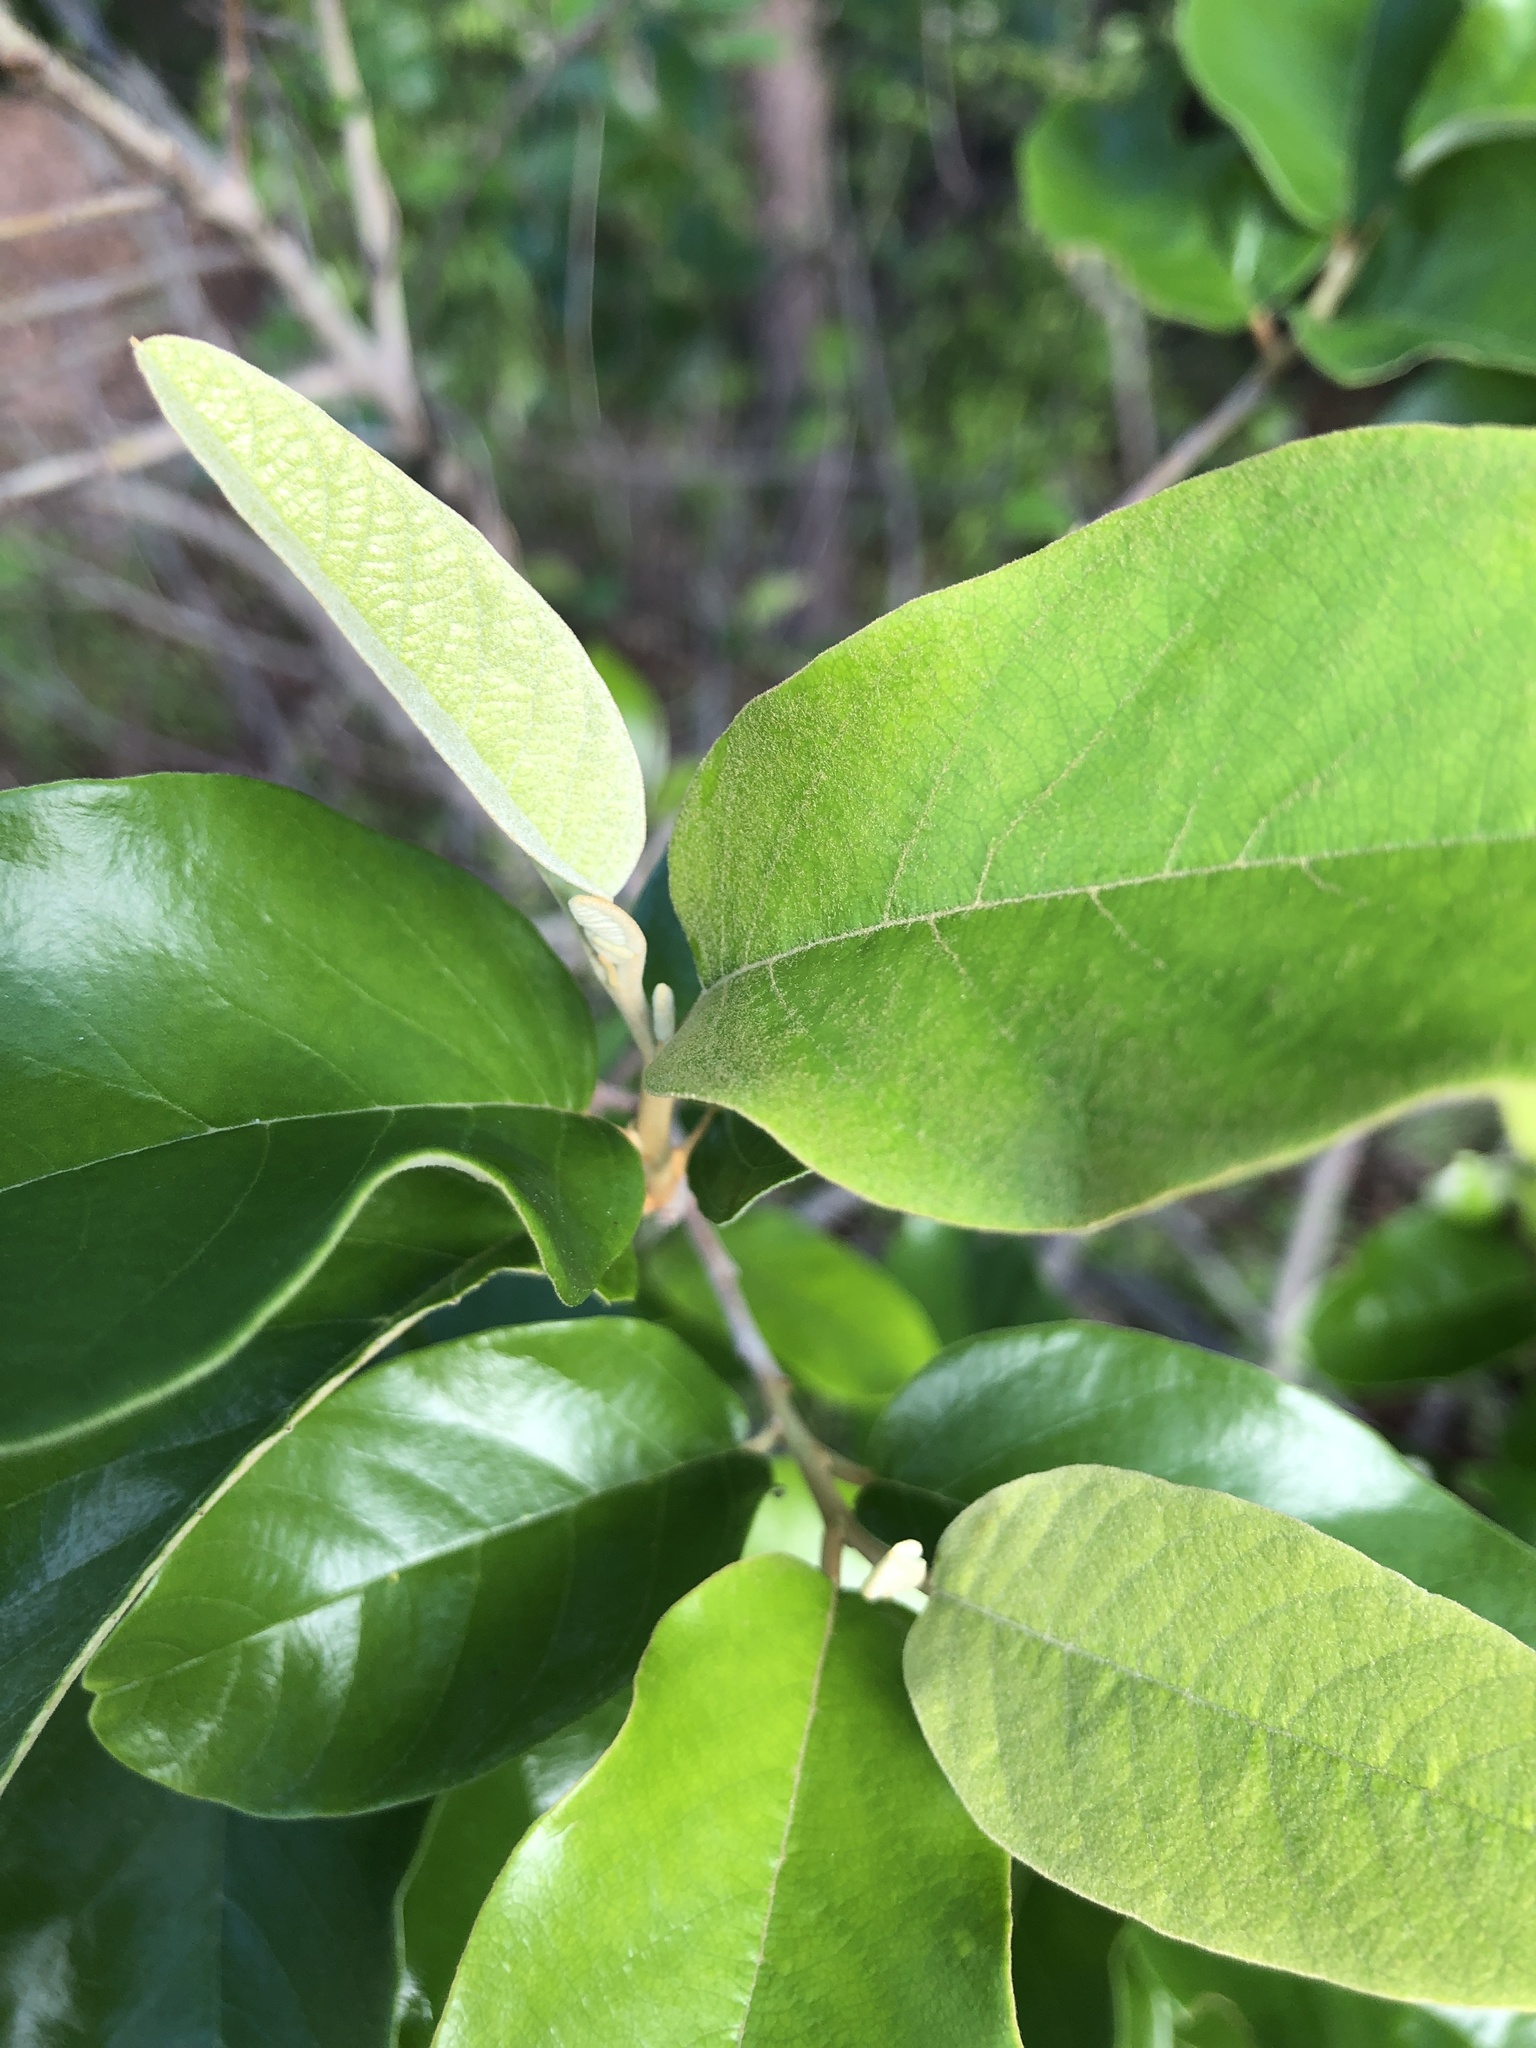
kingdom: Plantae
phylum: Tracheophyta
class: Magnoliopsida
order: Rosales
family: Rhamnaceae
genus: Alphitonia
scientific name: Alphitonia excelsa
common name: Red ash
